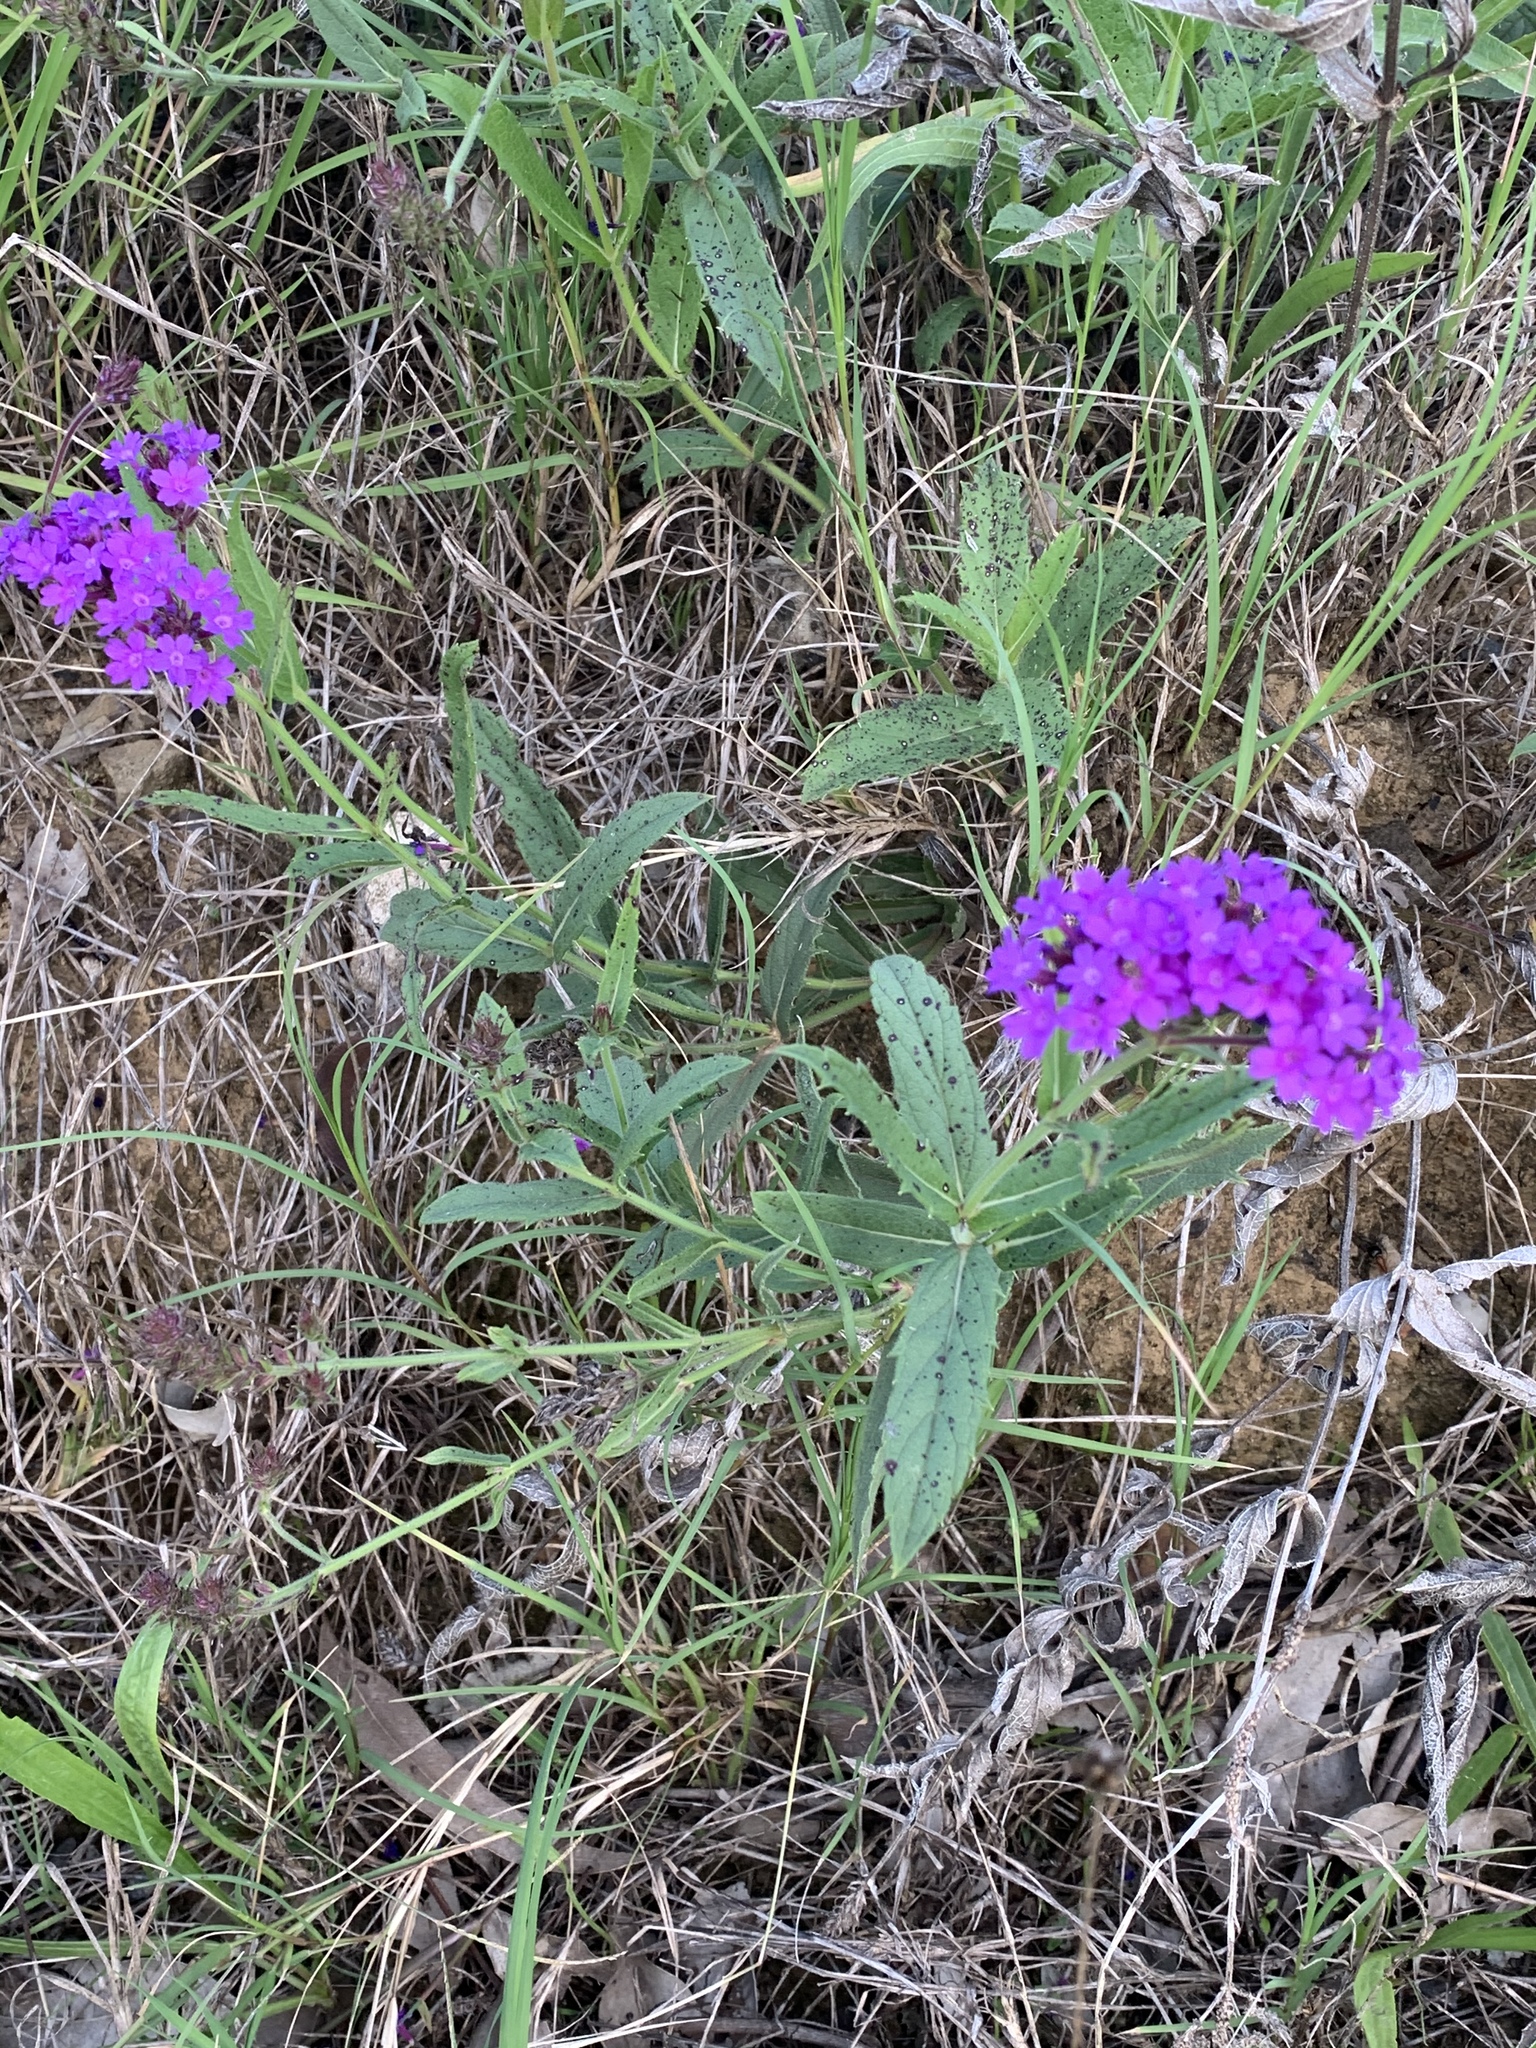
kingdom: Plantae
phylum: Tracheophyta
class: Magnoliopsida
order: Lamiales
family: Verbenaceae
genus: Verbena
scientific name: Verbena rigida
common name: Slender vervain
